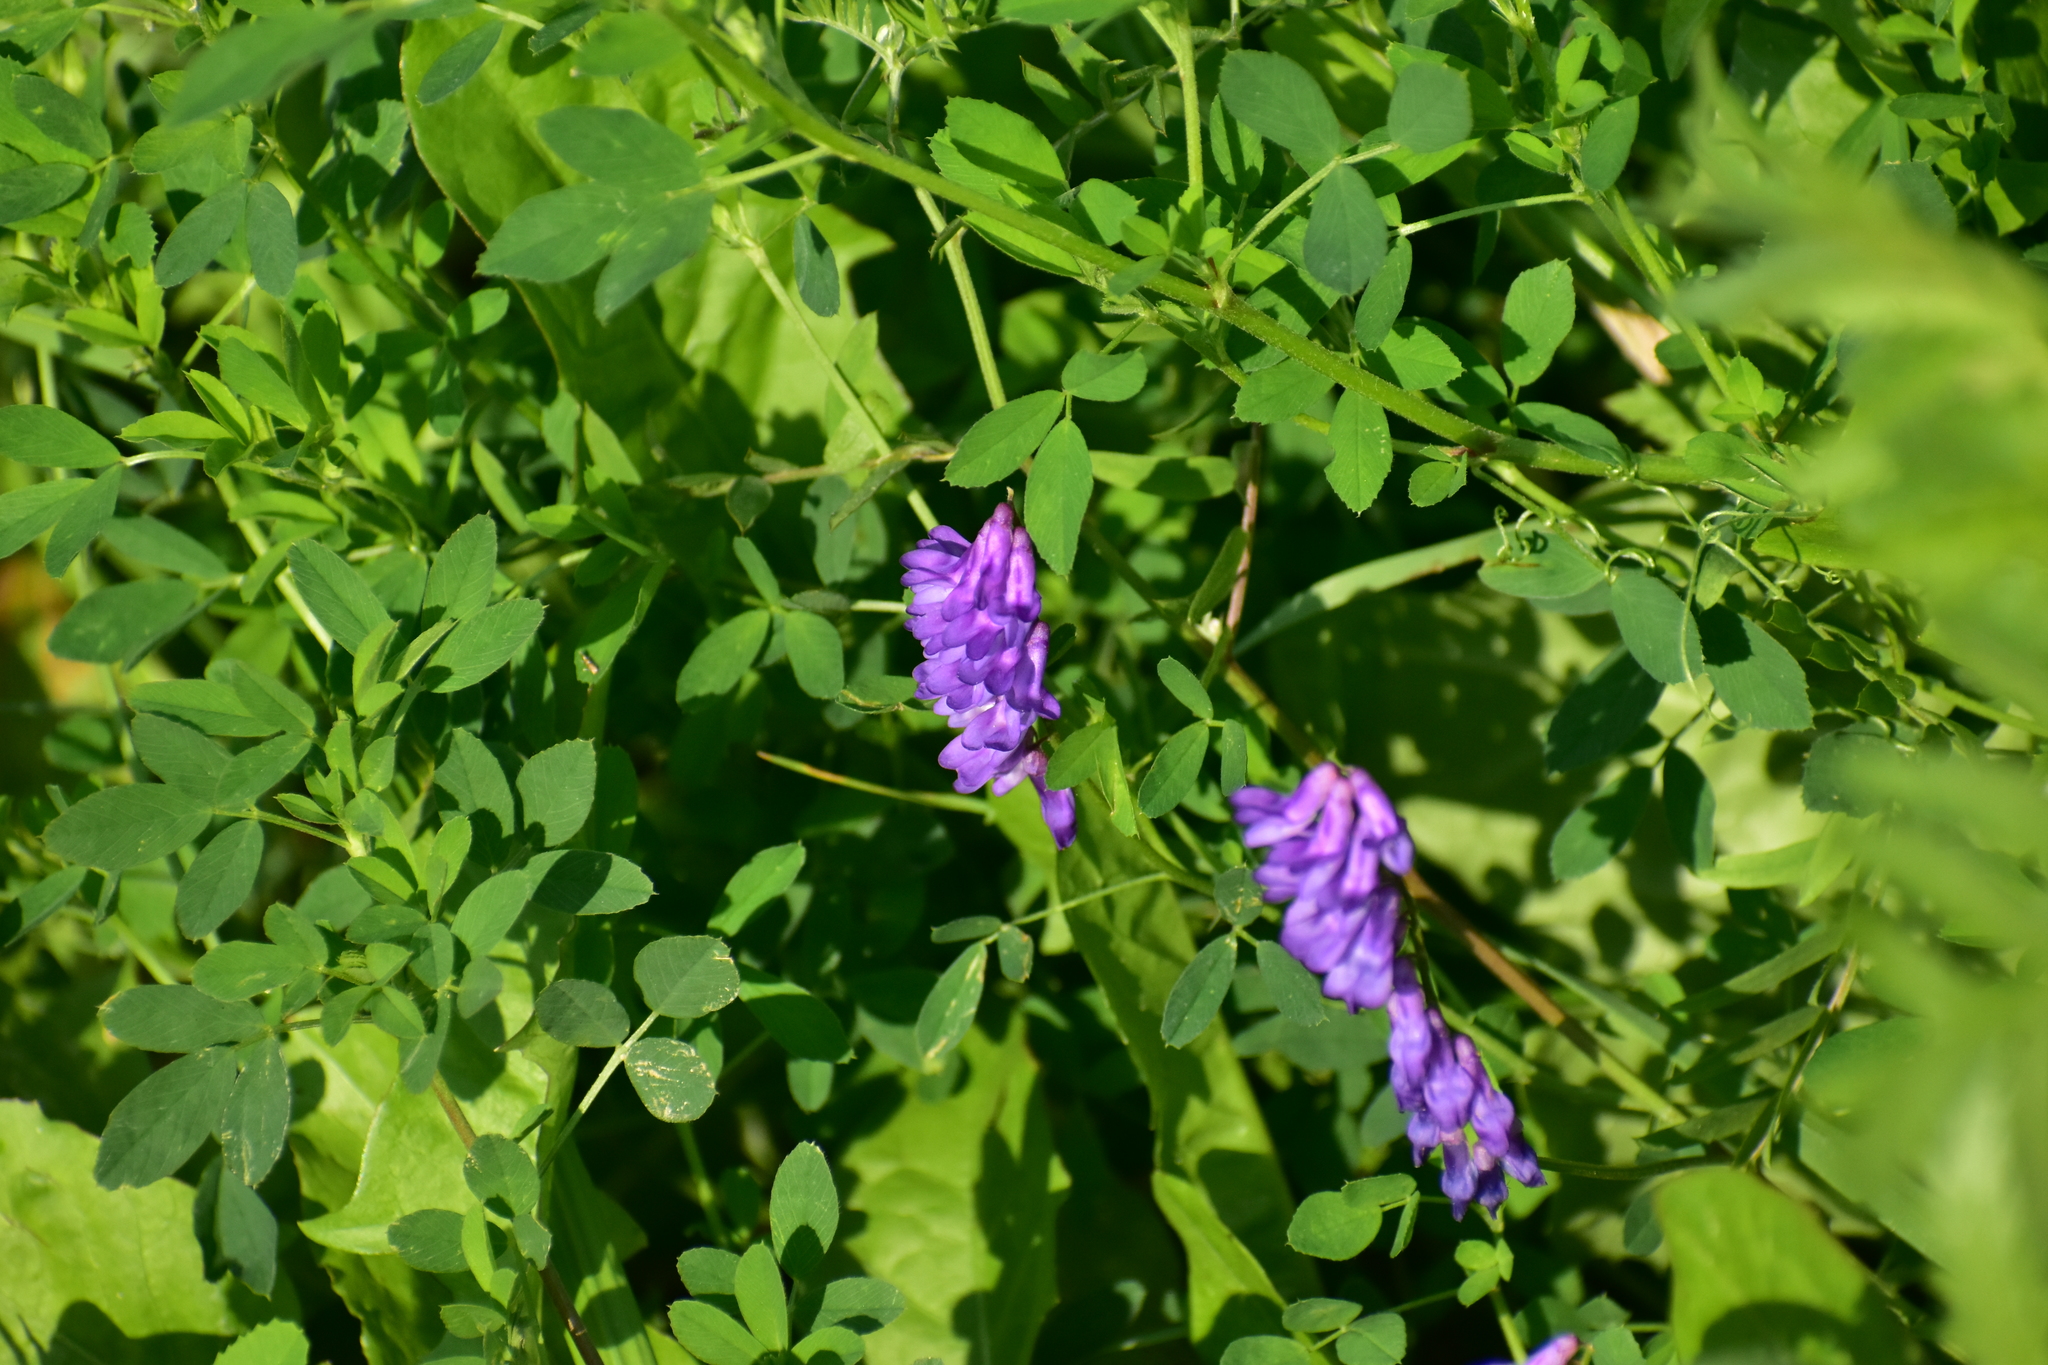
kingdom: Plantae
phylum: Tracheophyta
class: Magnoliopsida
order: Fabales
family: Fabaceae
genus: Vicia
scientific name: Vicia cracca
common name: Bird vetch
